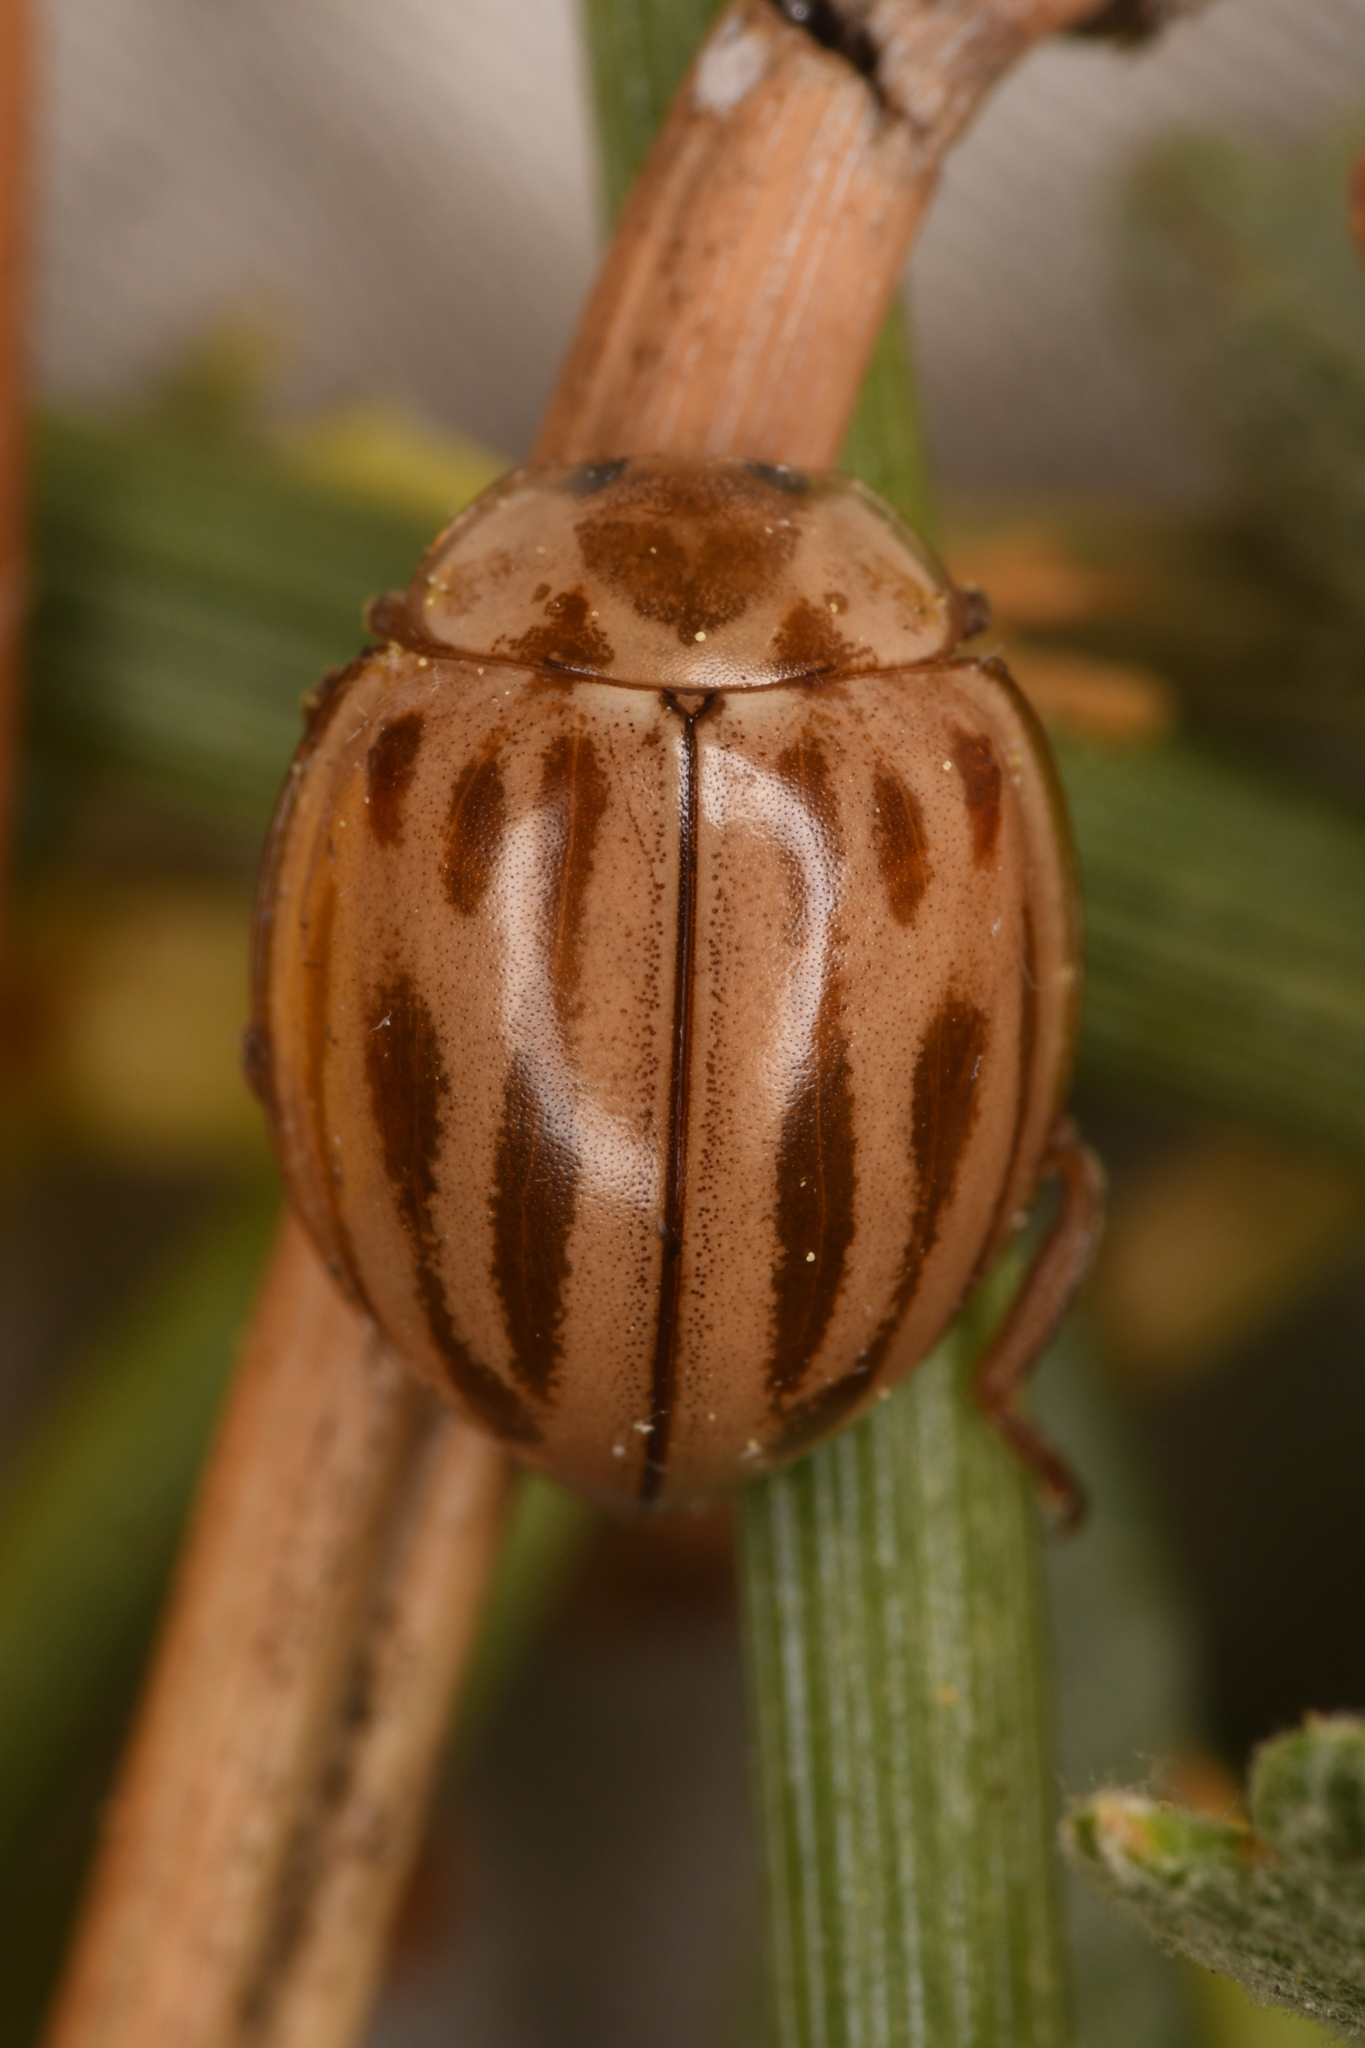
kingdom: Animalia
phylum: Arthropoda
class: Insecta
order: Coleoptera
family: Coccinellidae
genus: Myzia
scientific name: Myzia interrupta
